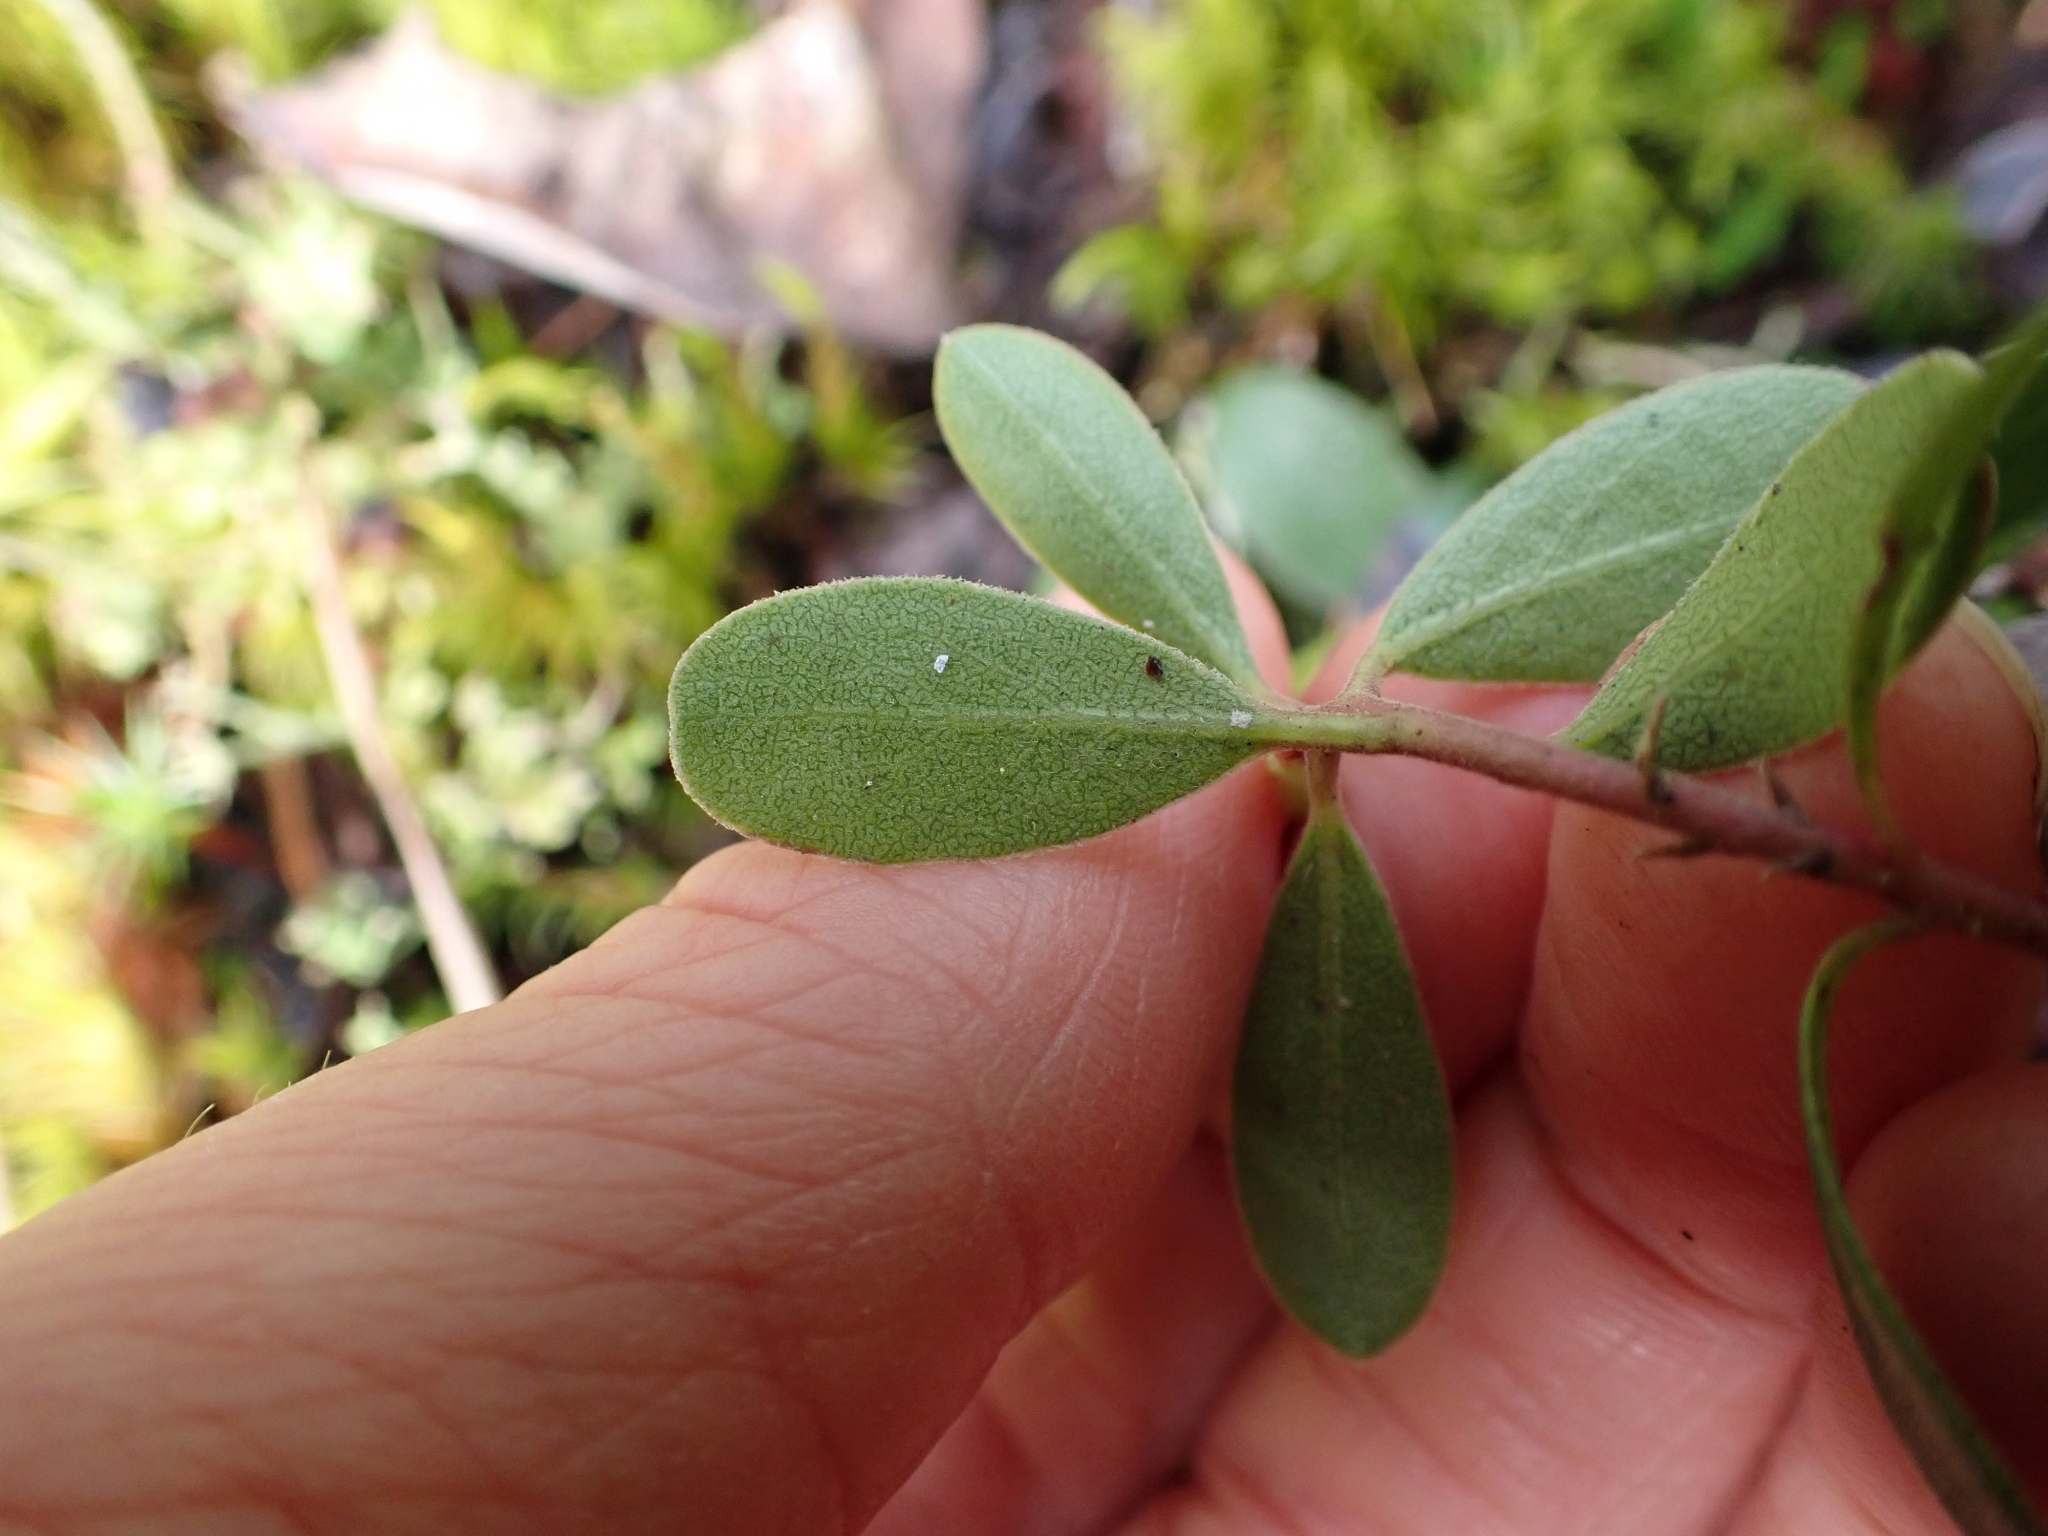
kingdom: Plantae
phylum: Tracheophyta
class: Magnoliopsida
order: Ericales
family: Ericaceae
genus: Arctostaphylos
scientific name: Arctostaphylos uva-ursi
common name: Bearberry
